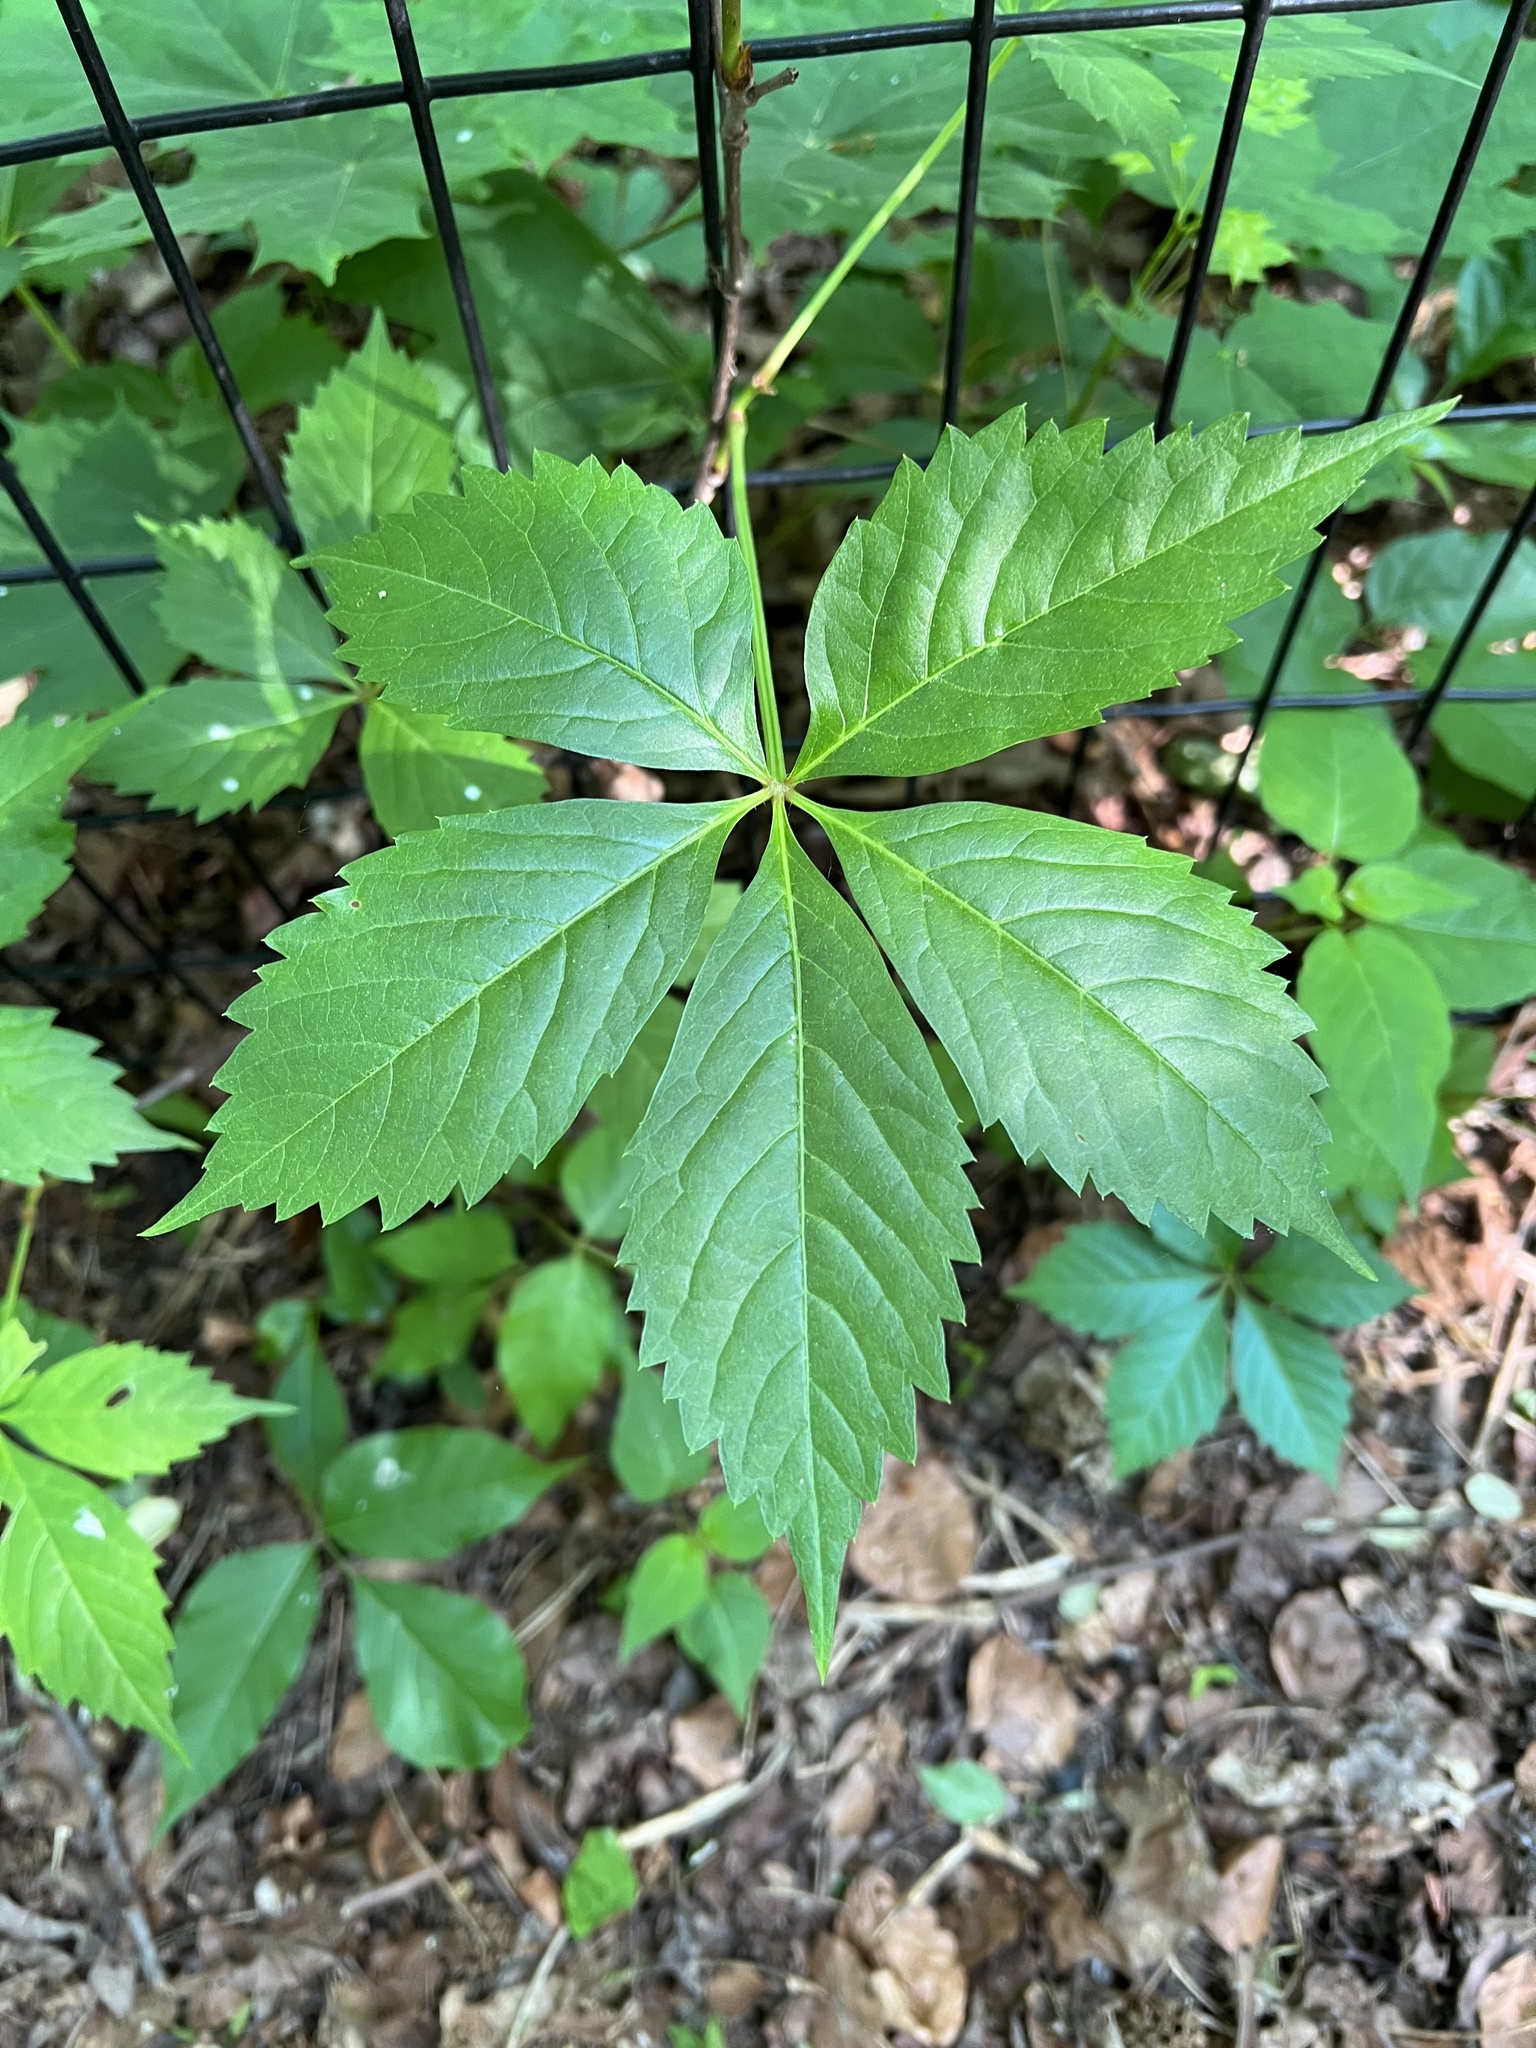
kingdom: Plantae
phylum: Tracheophyta
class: Magnoliopsida
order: Vitales
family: Vitaceae
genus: Parthenocissus
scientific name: Parthenocissus
